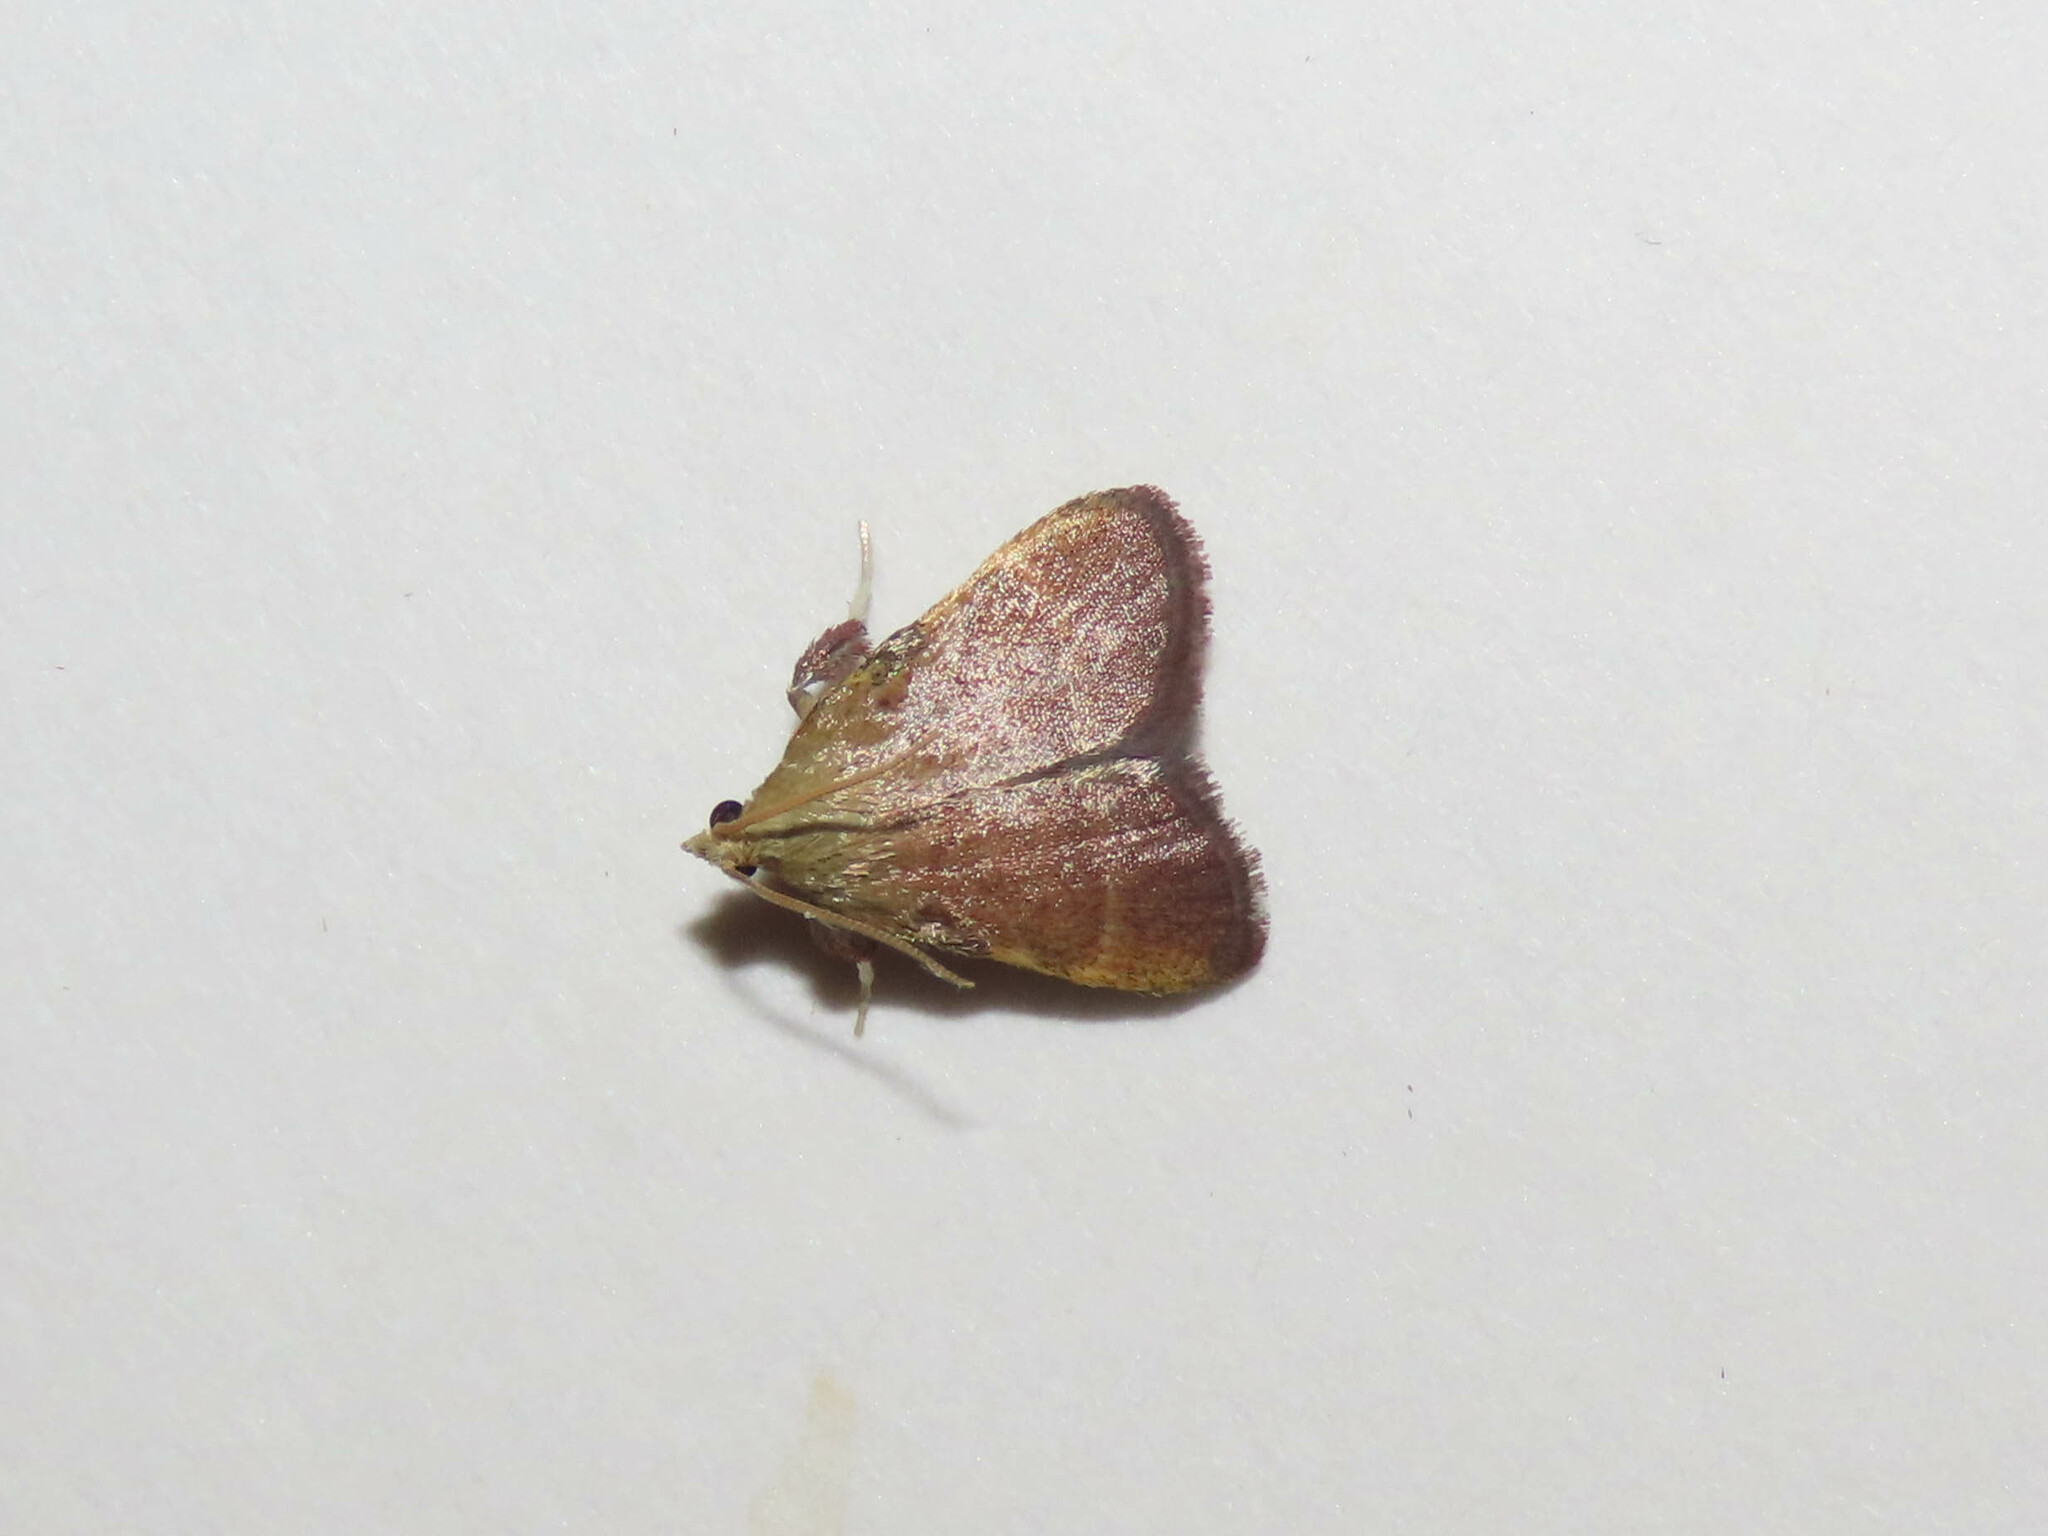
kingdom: Animalia
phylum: Arthropoda
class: Insecta
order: Lepidoptera
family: Pyralidae
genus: Condylolomia
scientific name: Condylolomia participialis
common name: Drab condylolomia moth
